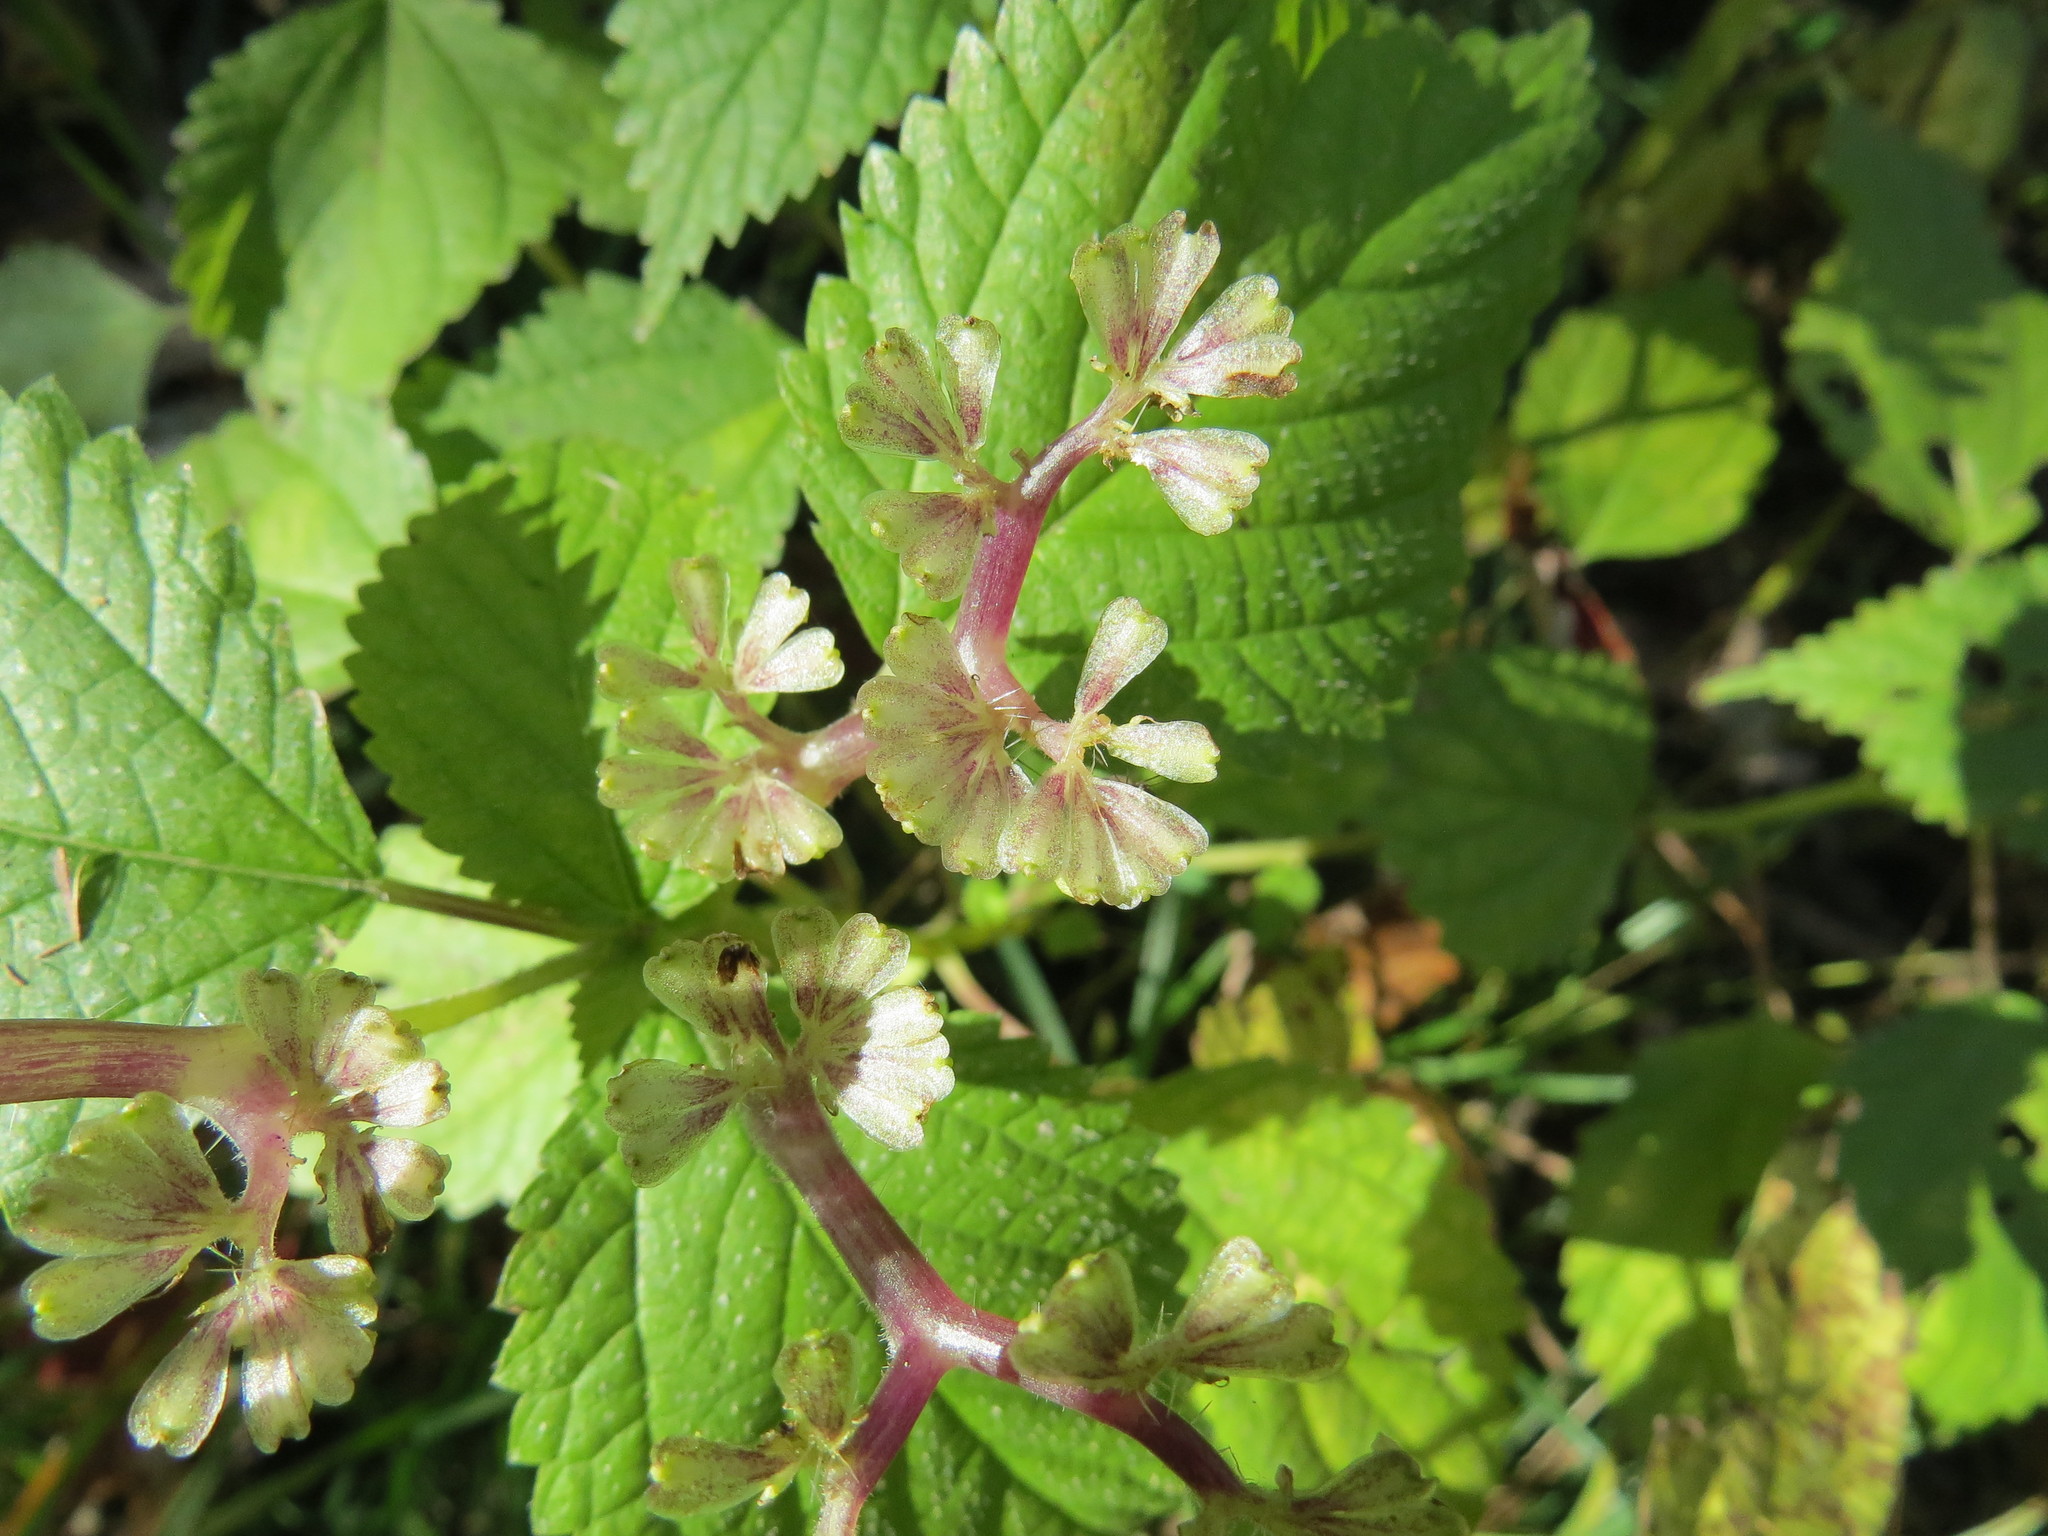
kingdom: Plantae
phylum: Tracheophyta
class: Magnoliopsida
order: Rosales
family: Urticaceae
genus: Laportea
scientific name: Laportea canadensis
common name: Canada nettle
